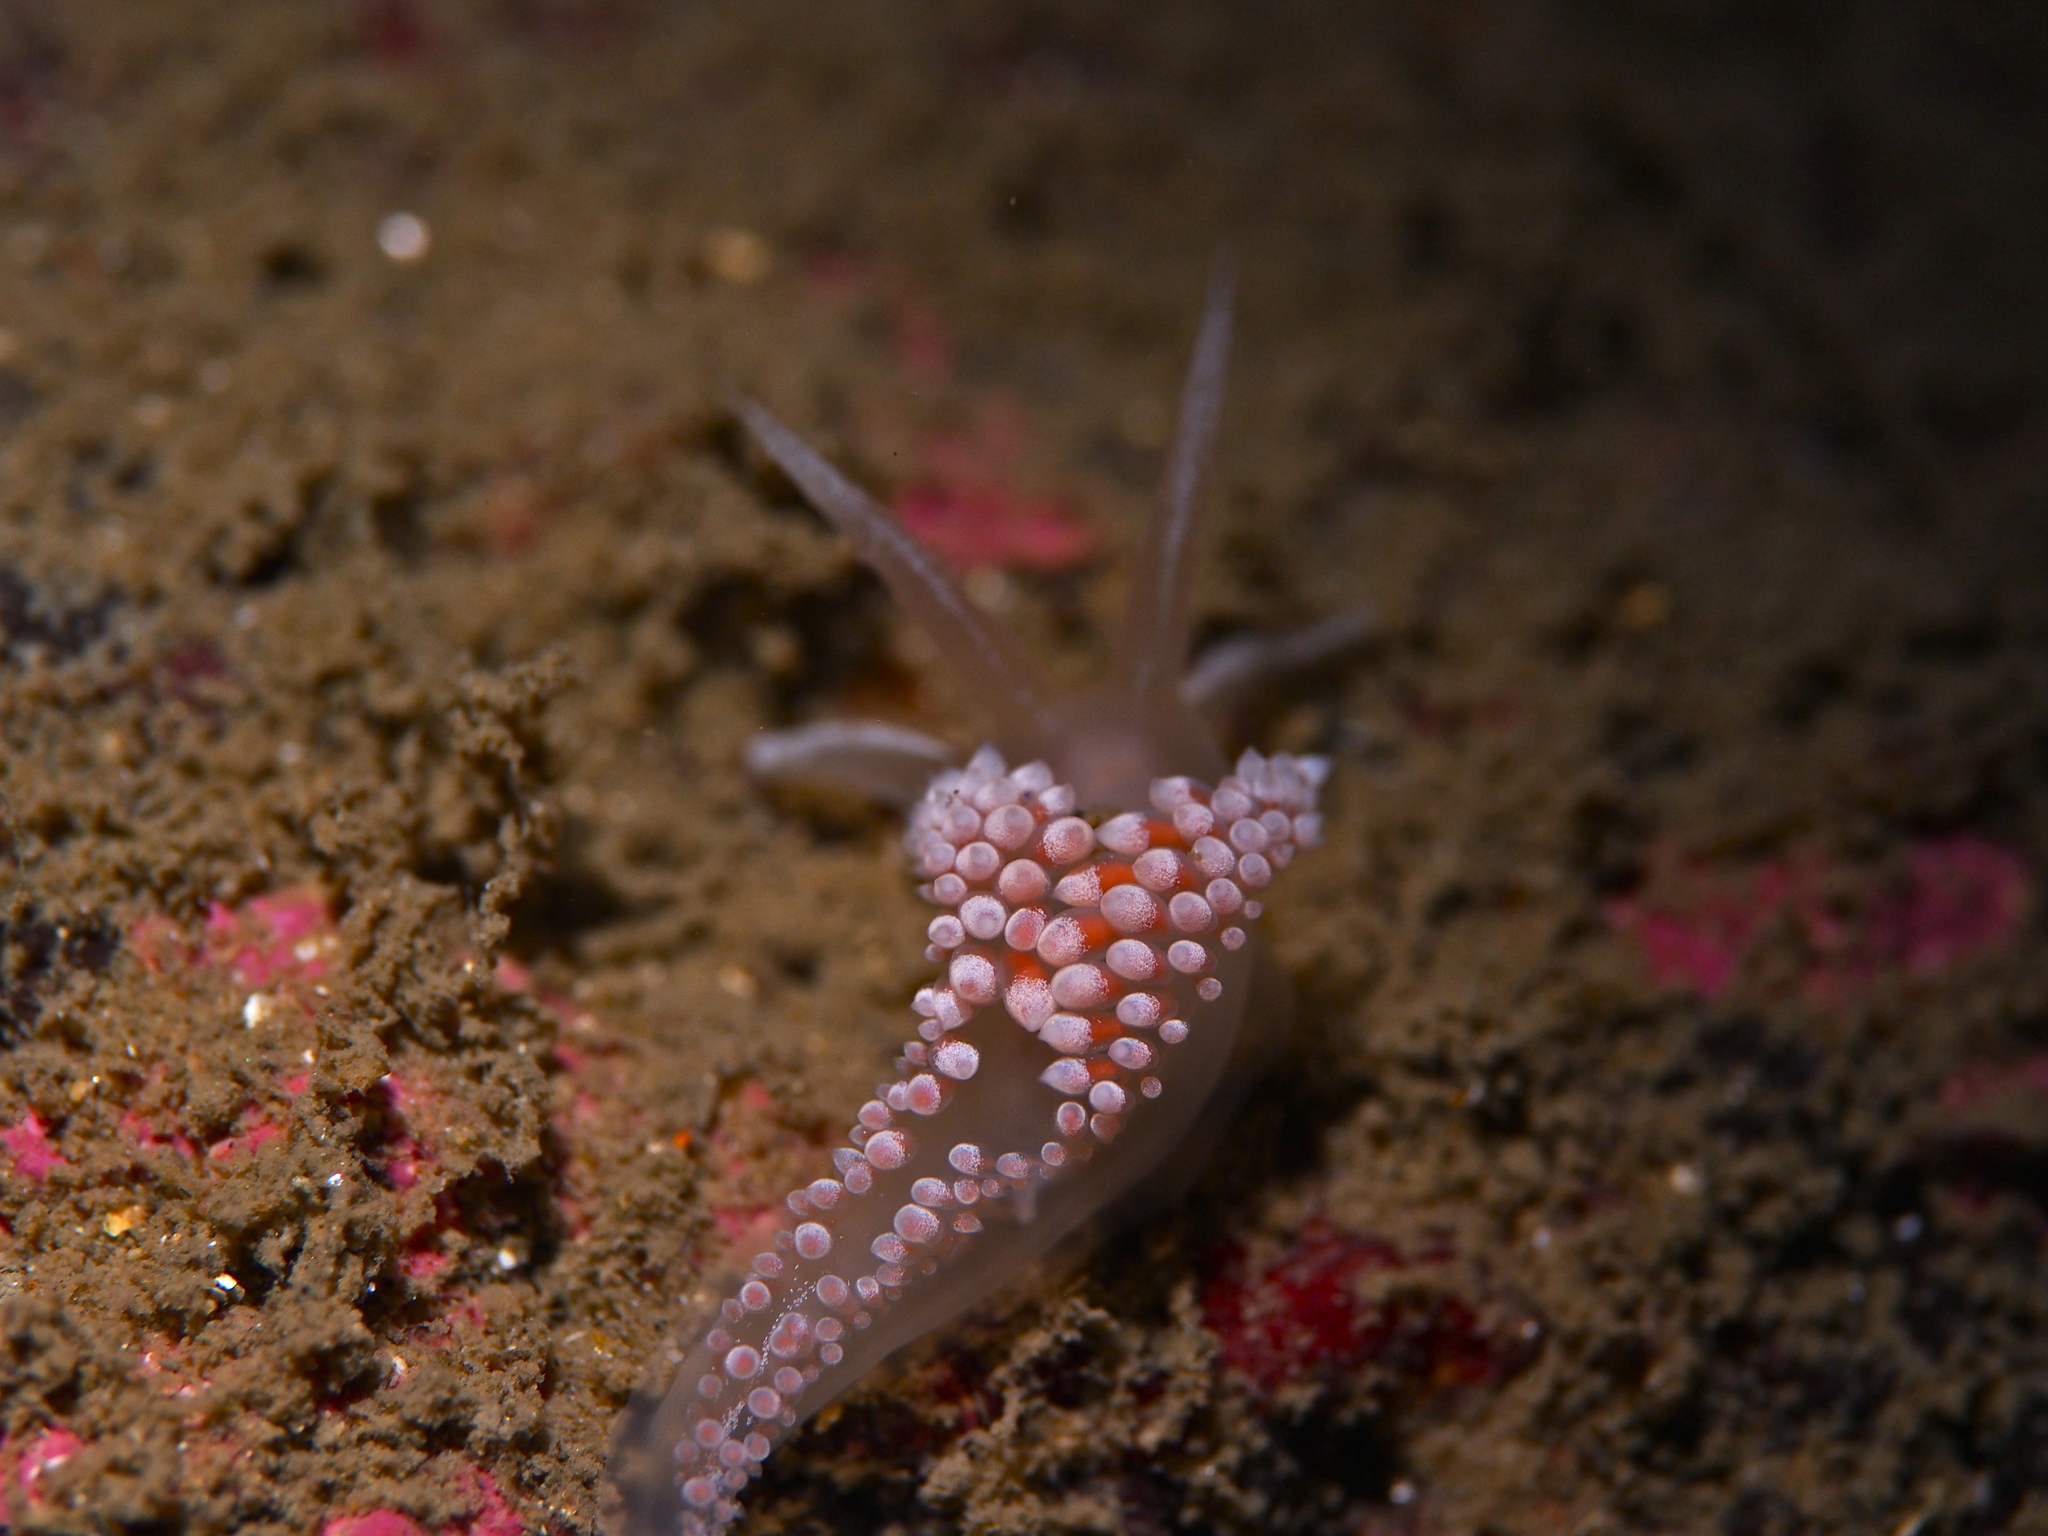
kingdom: Animalia
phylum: Mollusca
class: Gastropoda
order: Nudibranchia
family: Coryphellidae
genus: Coryphella
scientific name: Coryphella verrucosa
